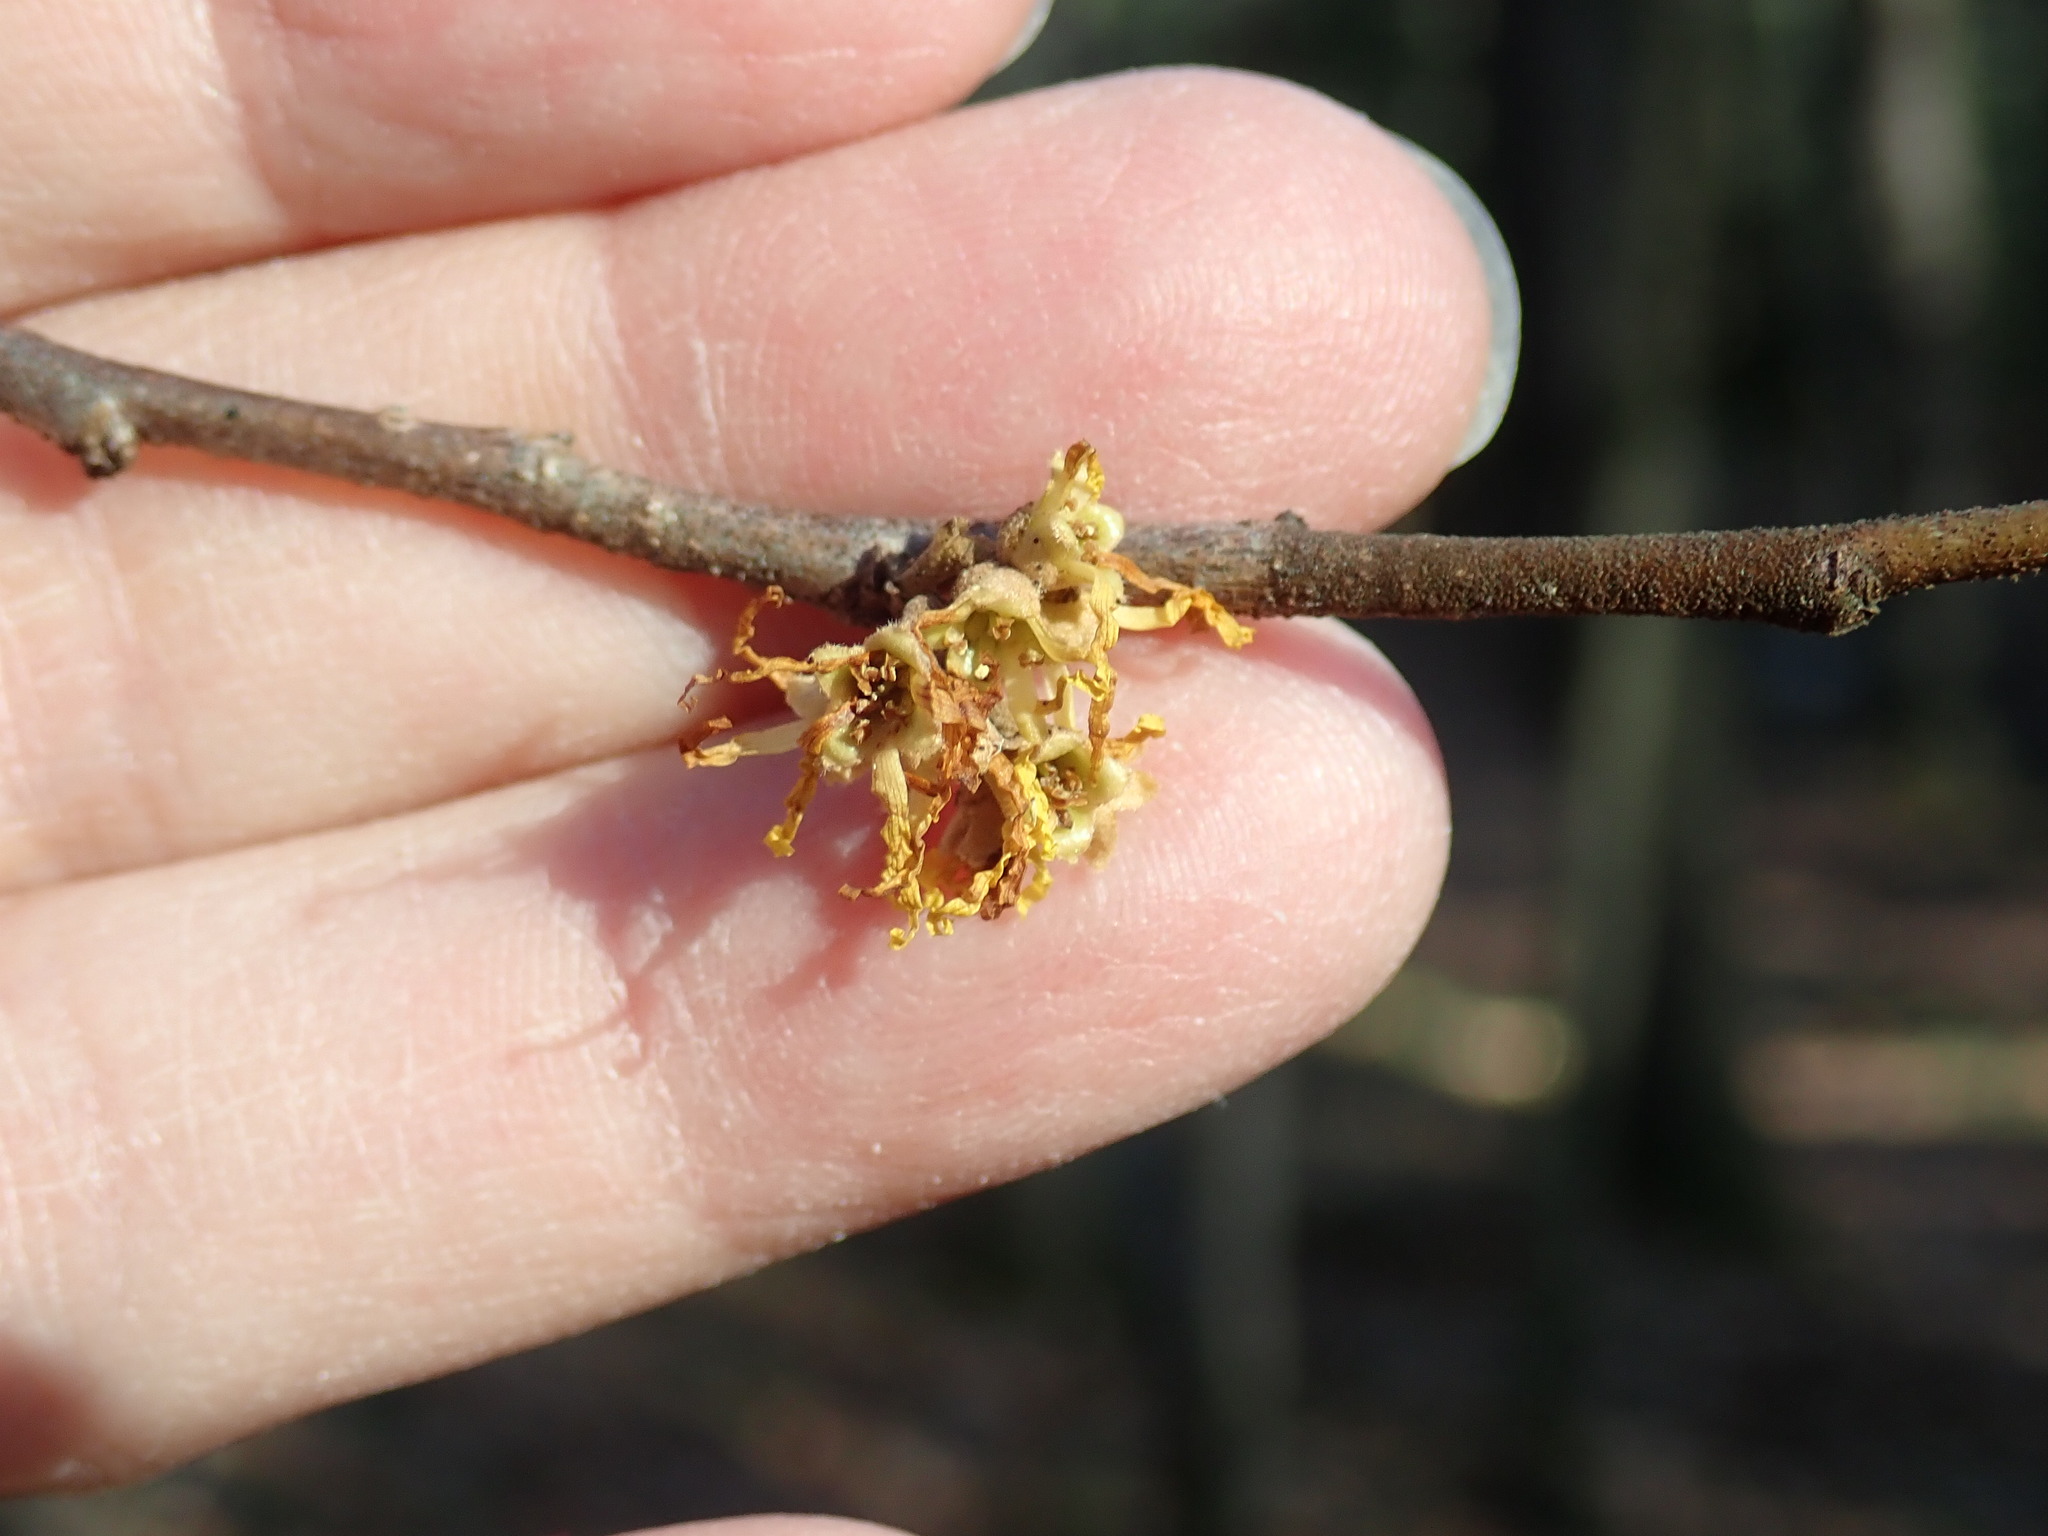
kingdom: Plantae
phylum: Tracheophyta
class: Magnoliopsida
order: Saxifragales
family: Hamamelidaceae
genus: Hamamelis
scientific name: Hamamelis virginiana
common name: Witch-hazel
